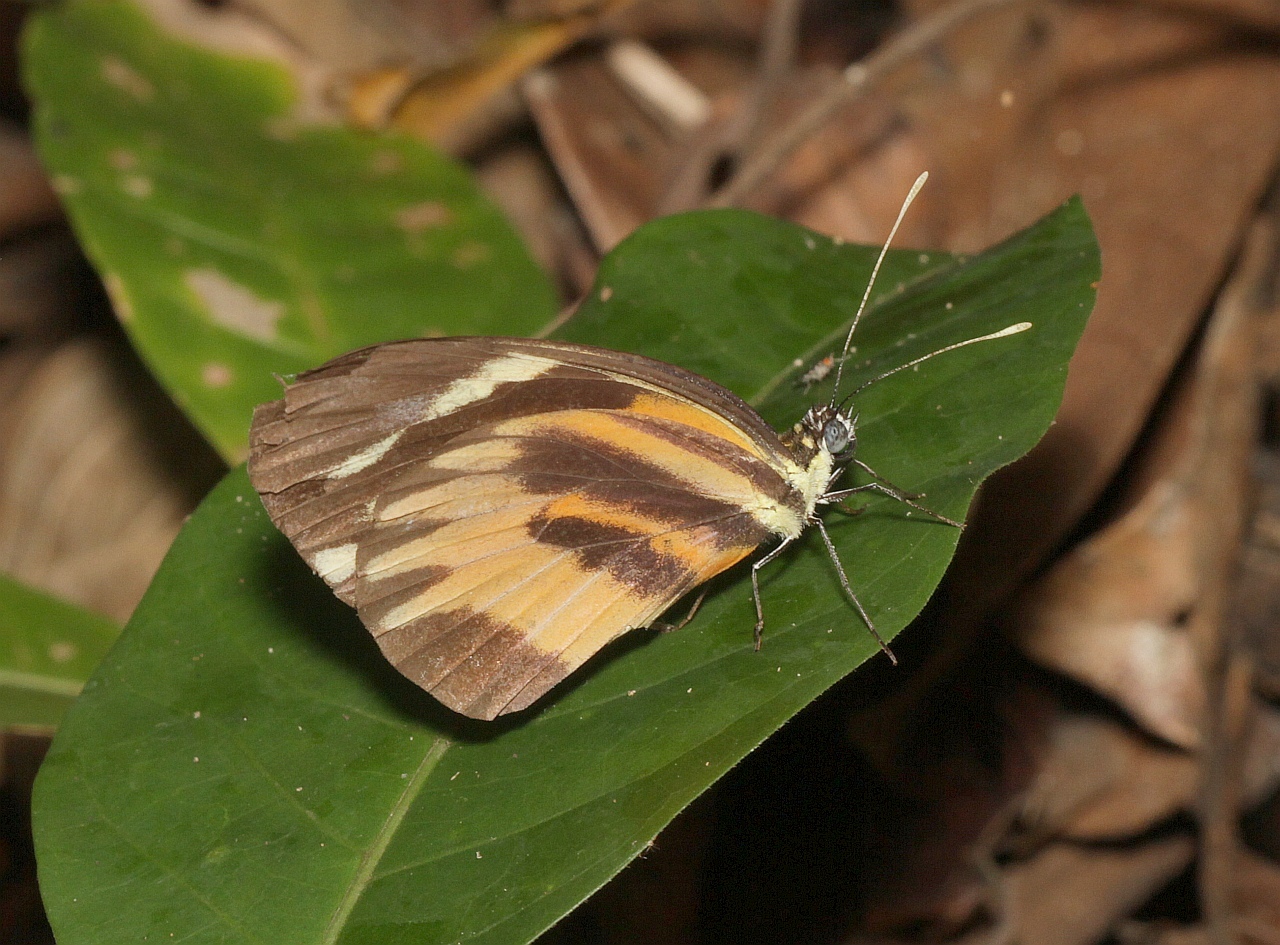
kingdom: Animalia
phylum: Arthropoda
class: Insecta
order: Lepidoptera
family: Pieridae
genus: Perrhybris
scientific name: Perrhybris pamela
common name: Chiapas white
